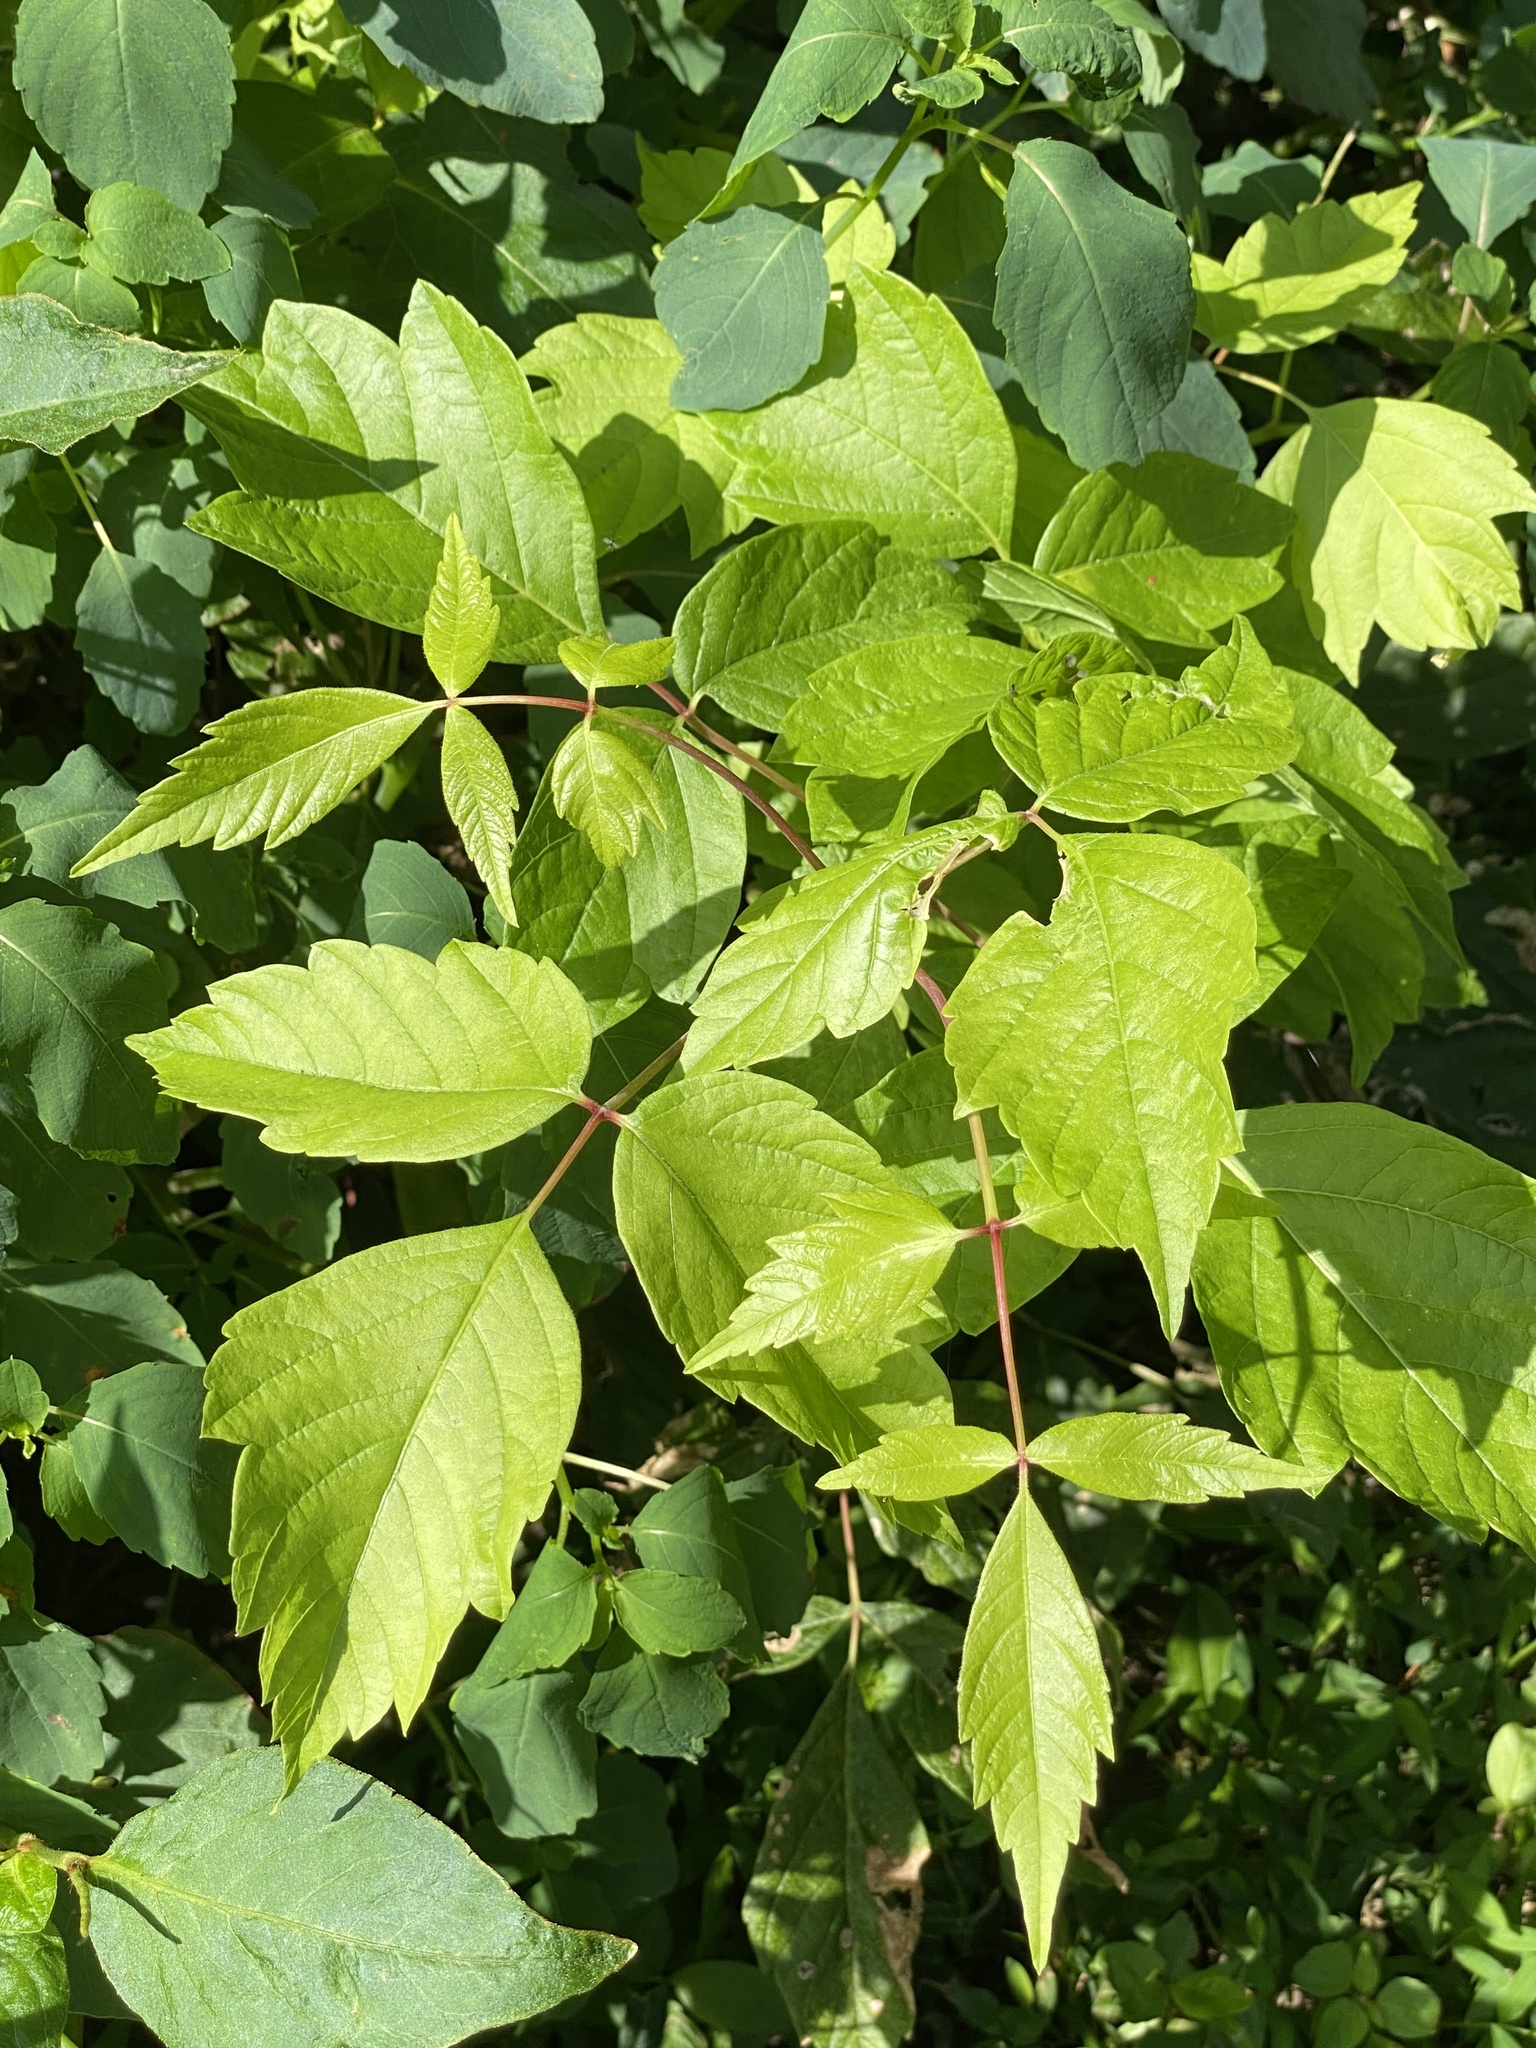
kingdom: Plantae
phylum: Tracheophyta
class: Magnoliopsida
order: Sapindales
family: Sapindaceae
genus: Acer
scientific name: Acer negundo
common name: Ashleaf maple
